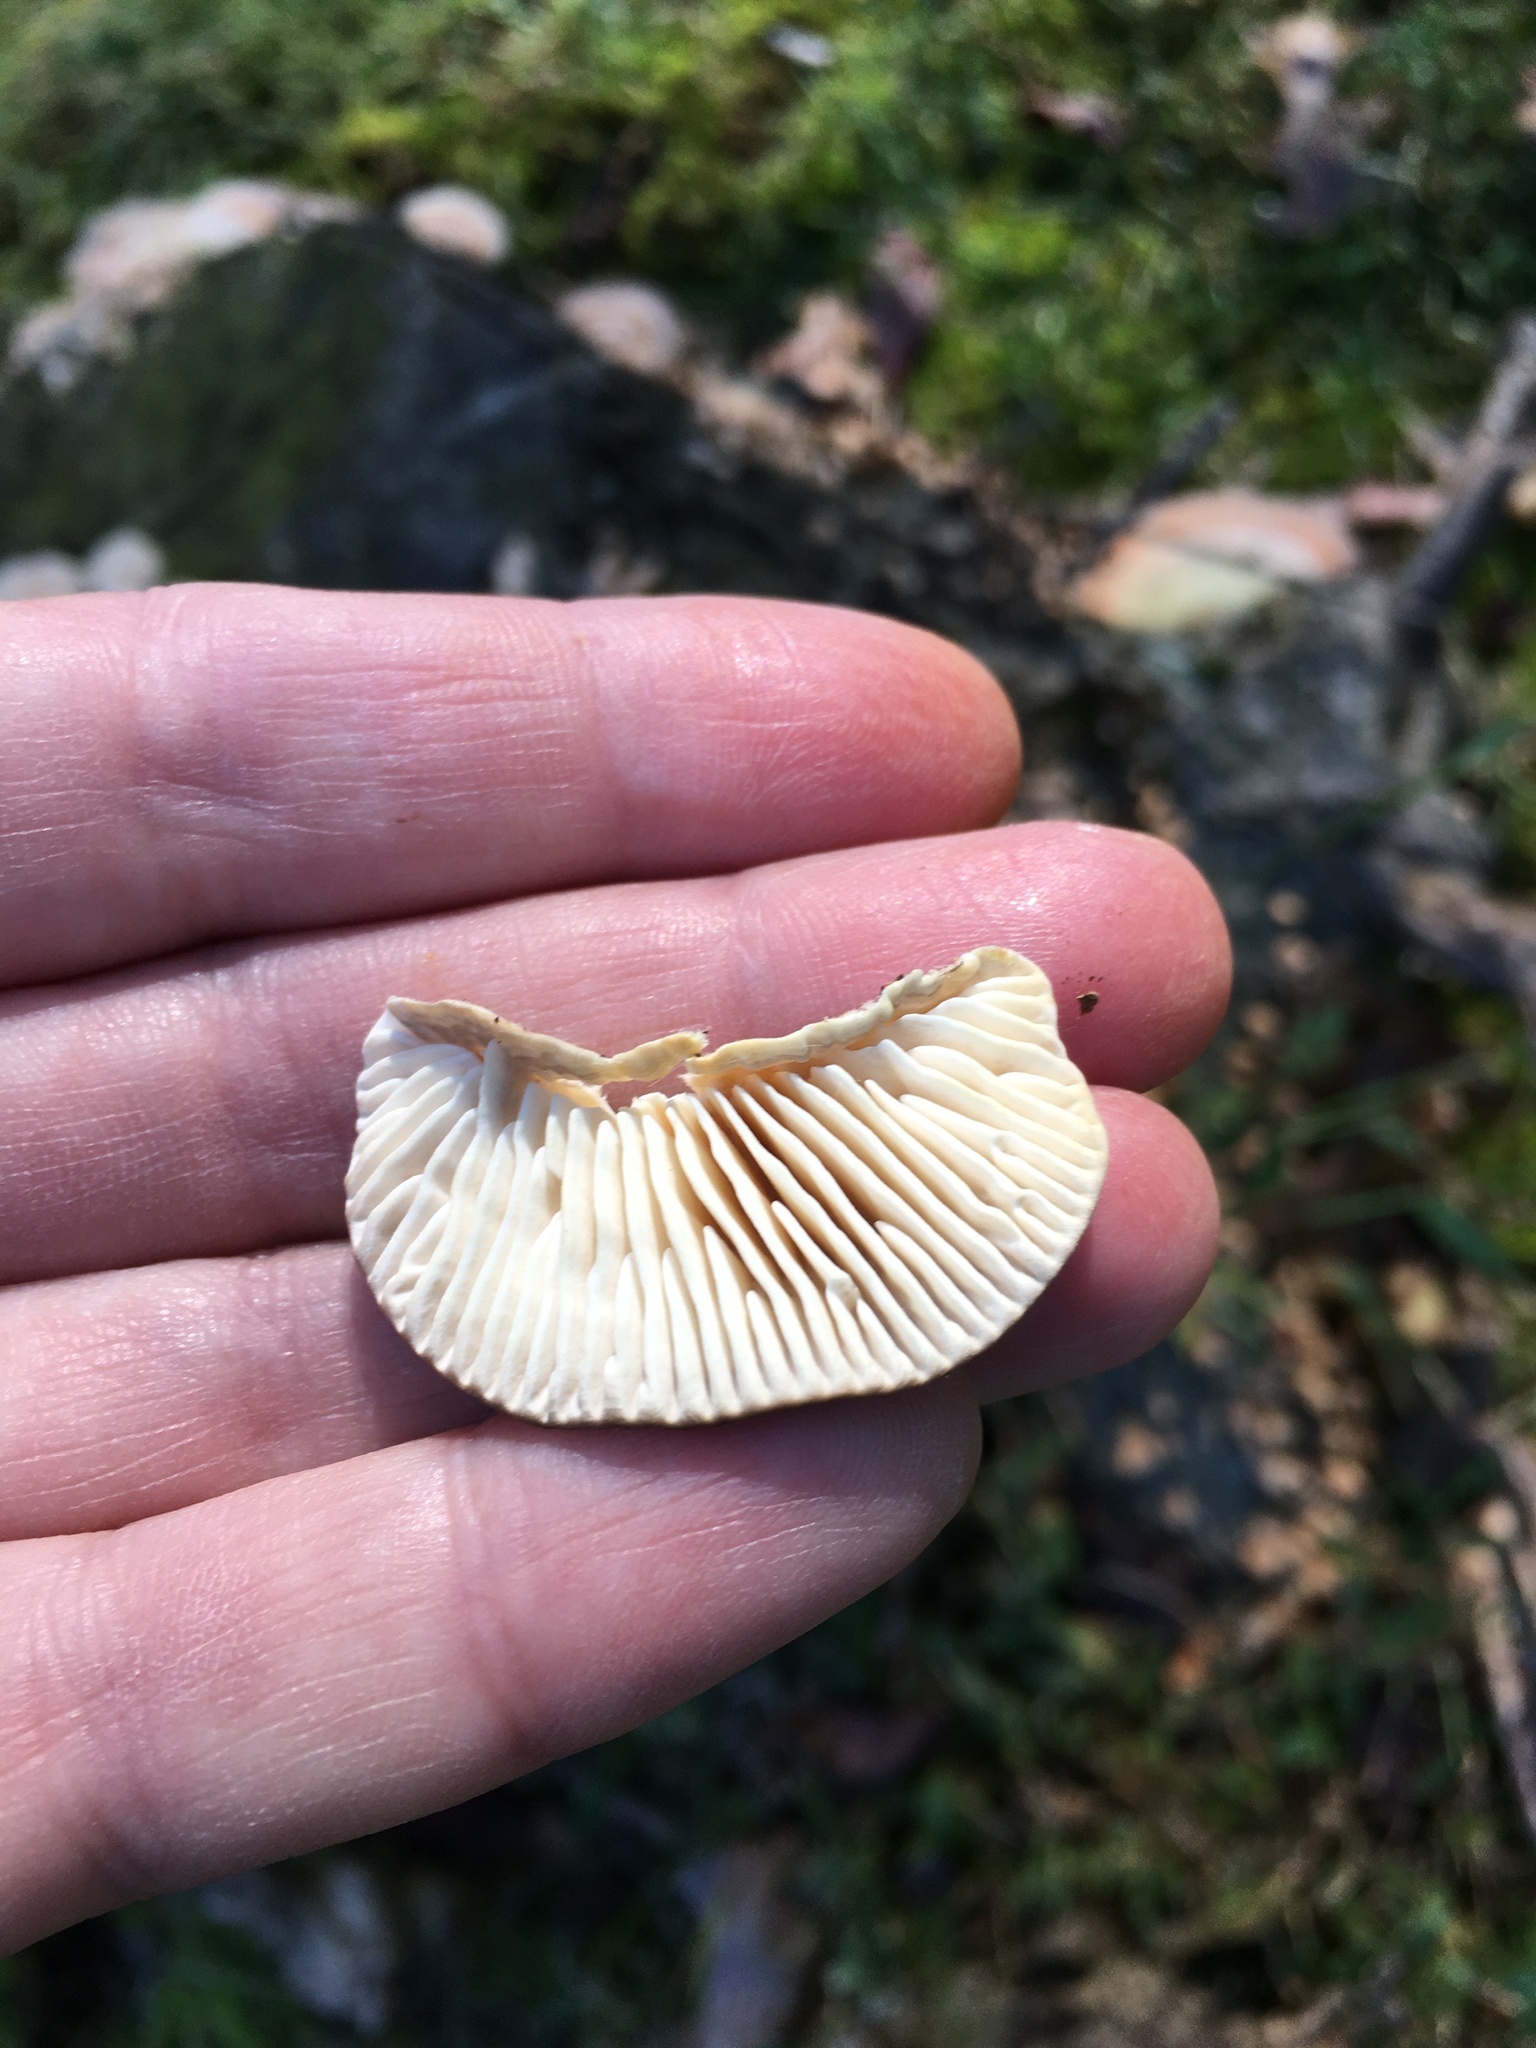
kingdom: Fungi
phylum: Basidiomycota
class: Agaricomycetes
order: Polyporales
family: Polyporaceae
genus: Lenzites
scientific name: Lenzites betulinus
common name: Birch mazegill
